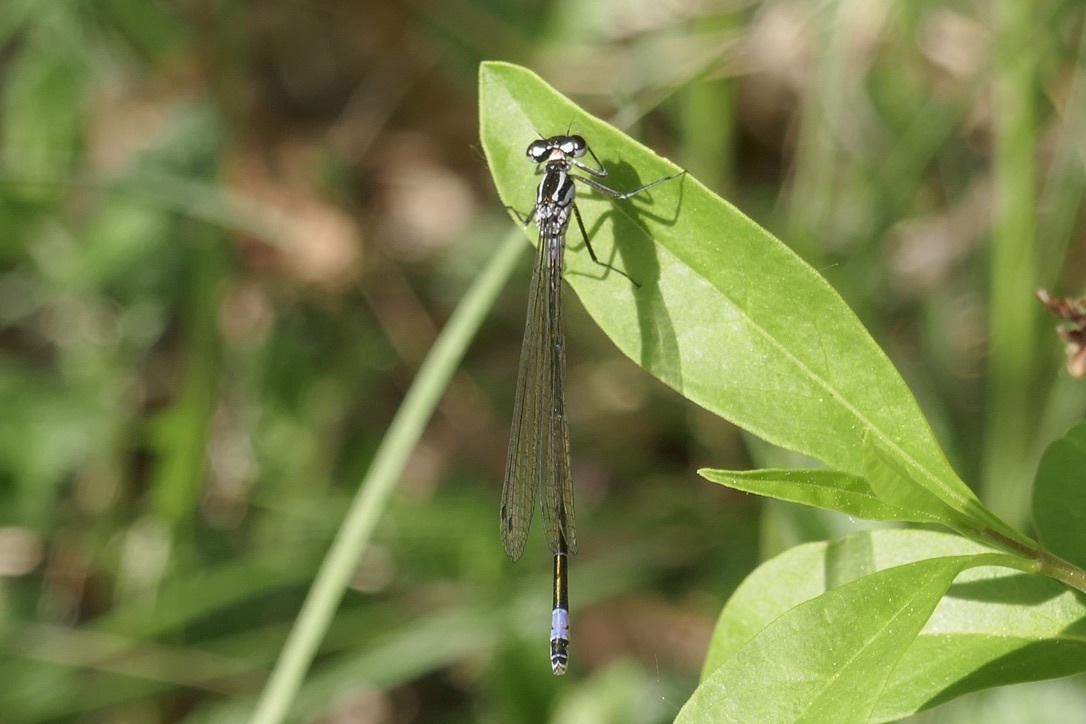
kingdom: Animalia
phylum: Arthropoda
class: Insecta
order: Odonata
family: Coenagrionidae
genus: Coenagrion
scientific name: Coenagrion pulchellum
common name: Variable bluet
